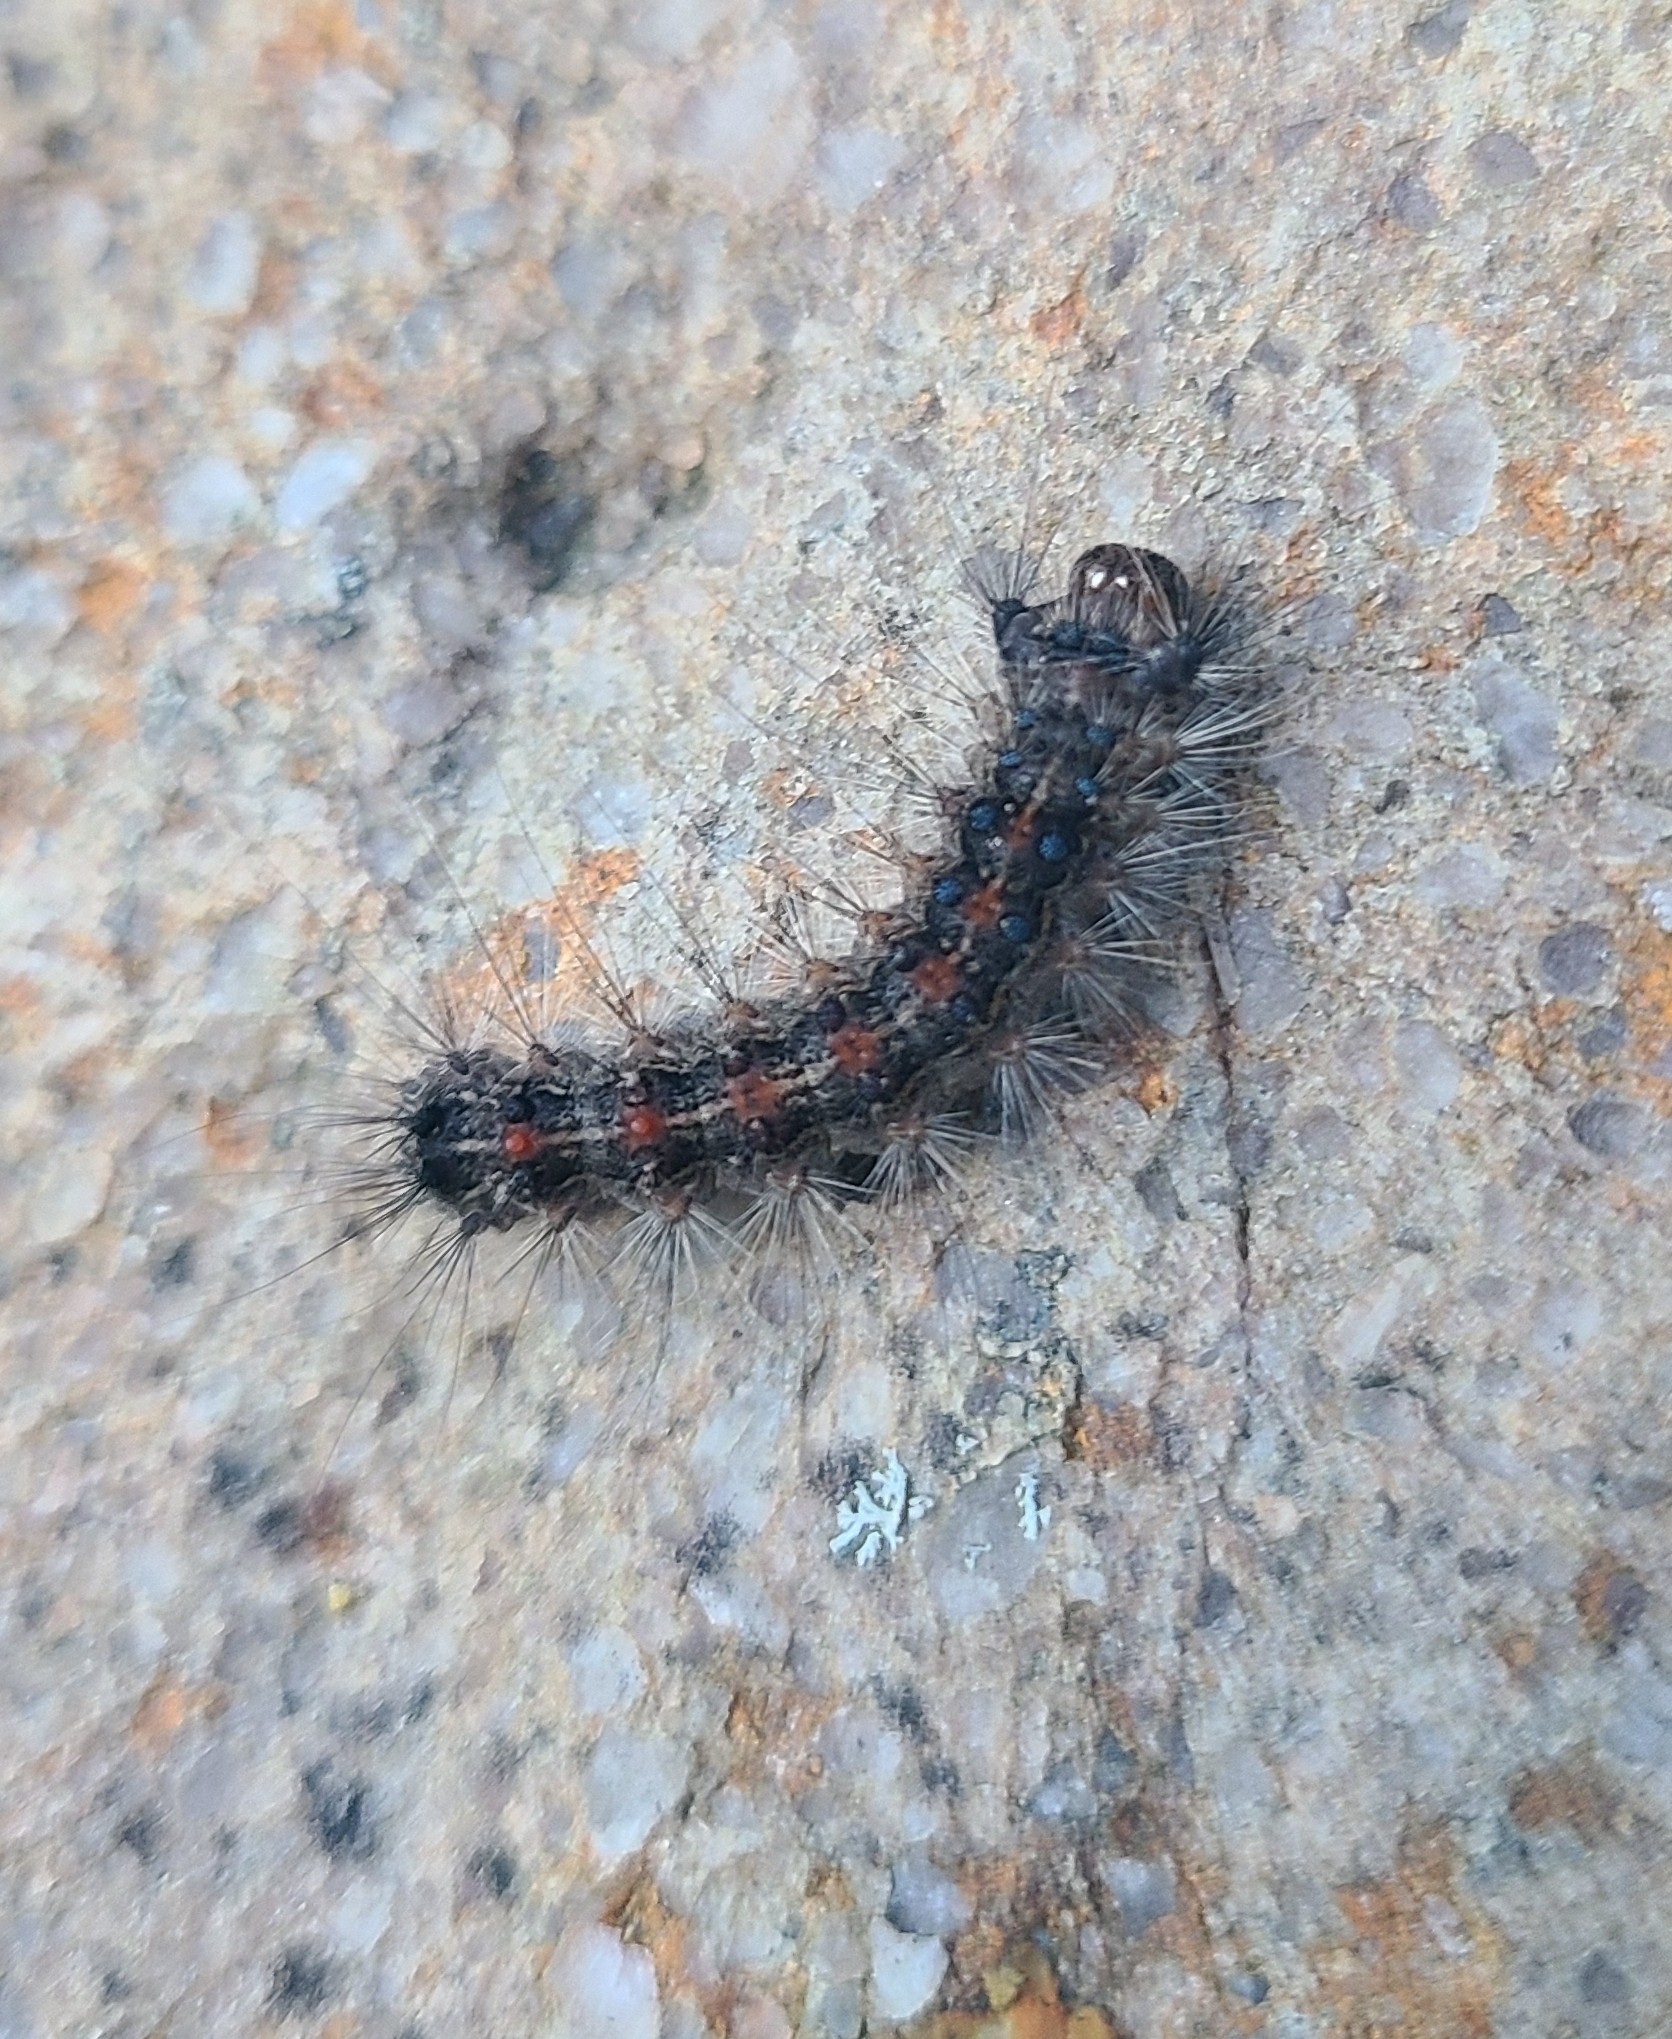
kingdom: Animalia
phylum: Arthropoda
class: Insecta
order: Lepidoptera
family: Erebidae
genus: Lymantria
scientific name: Lymantria dispar
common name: Gypsy moth
